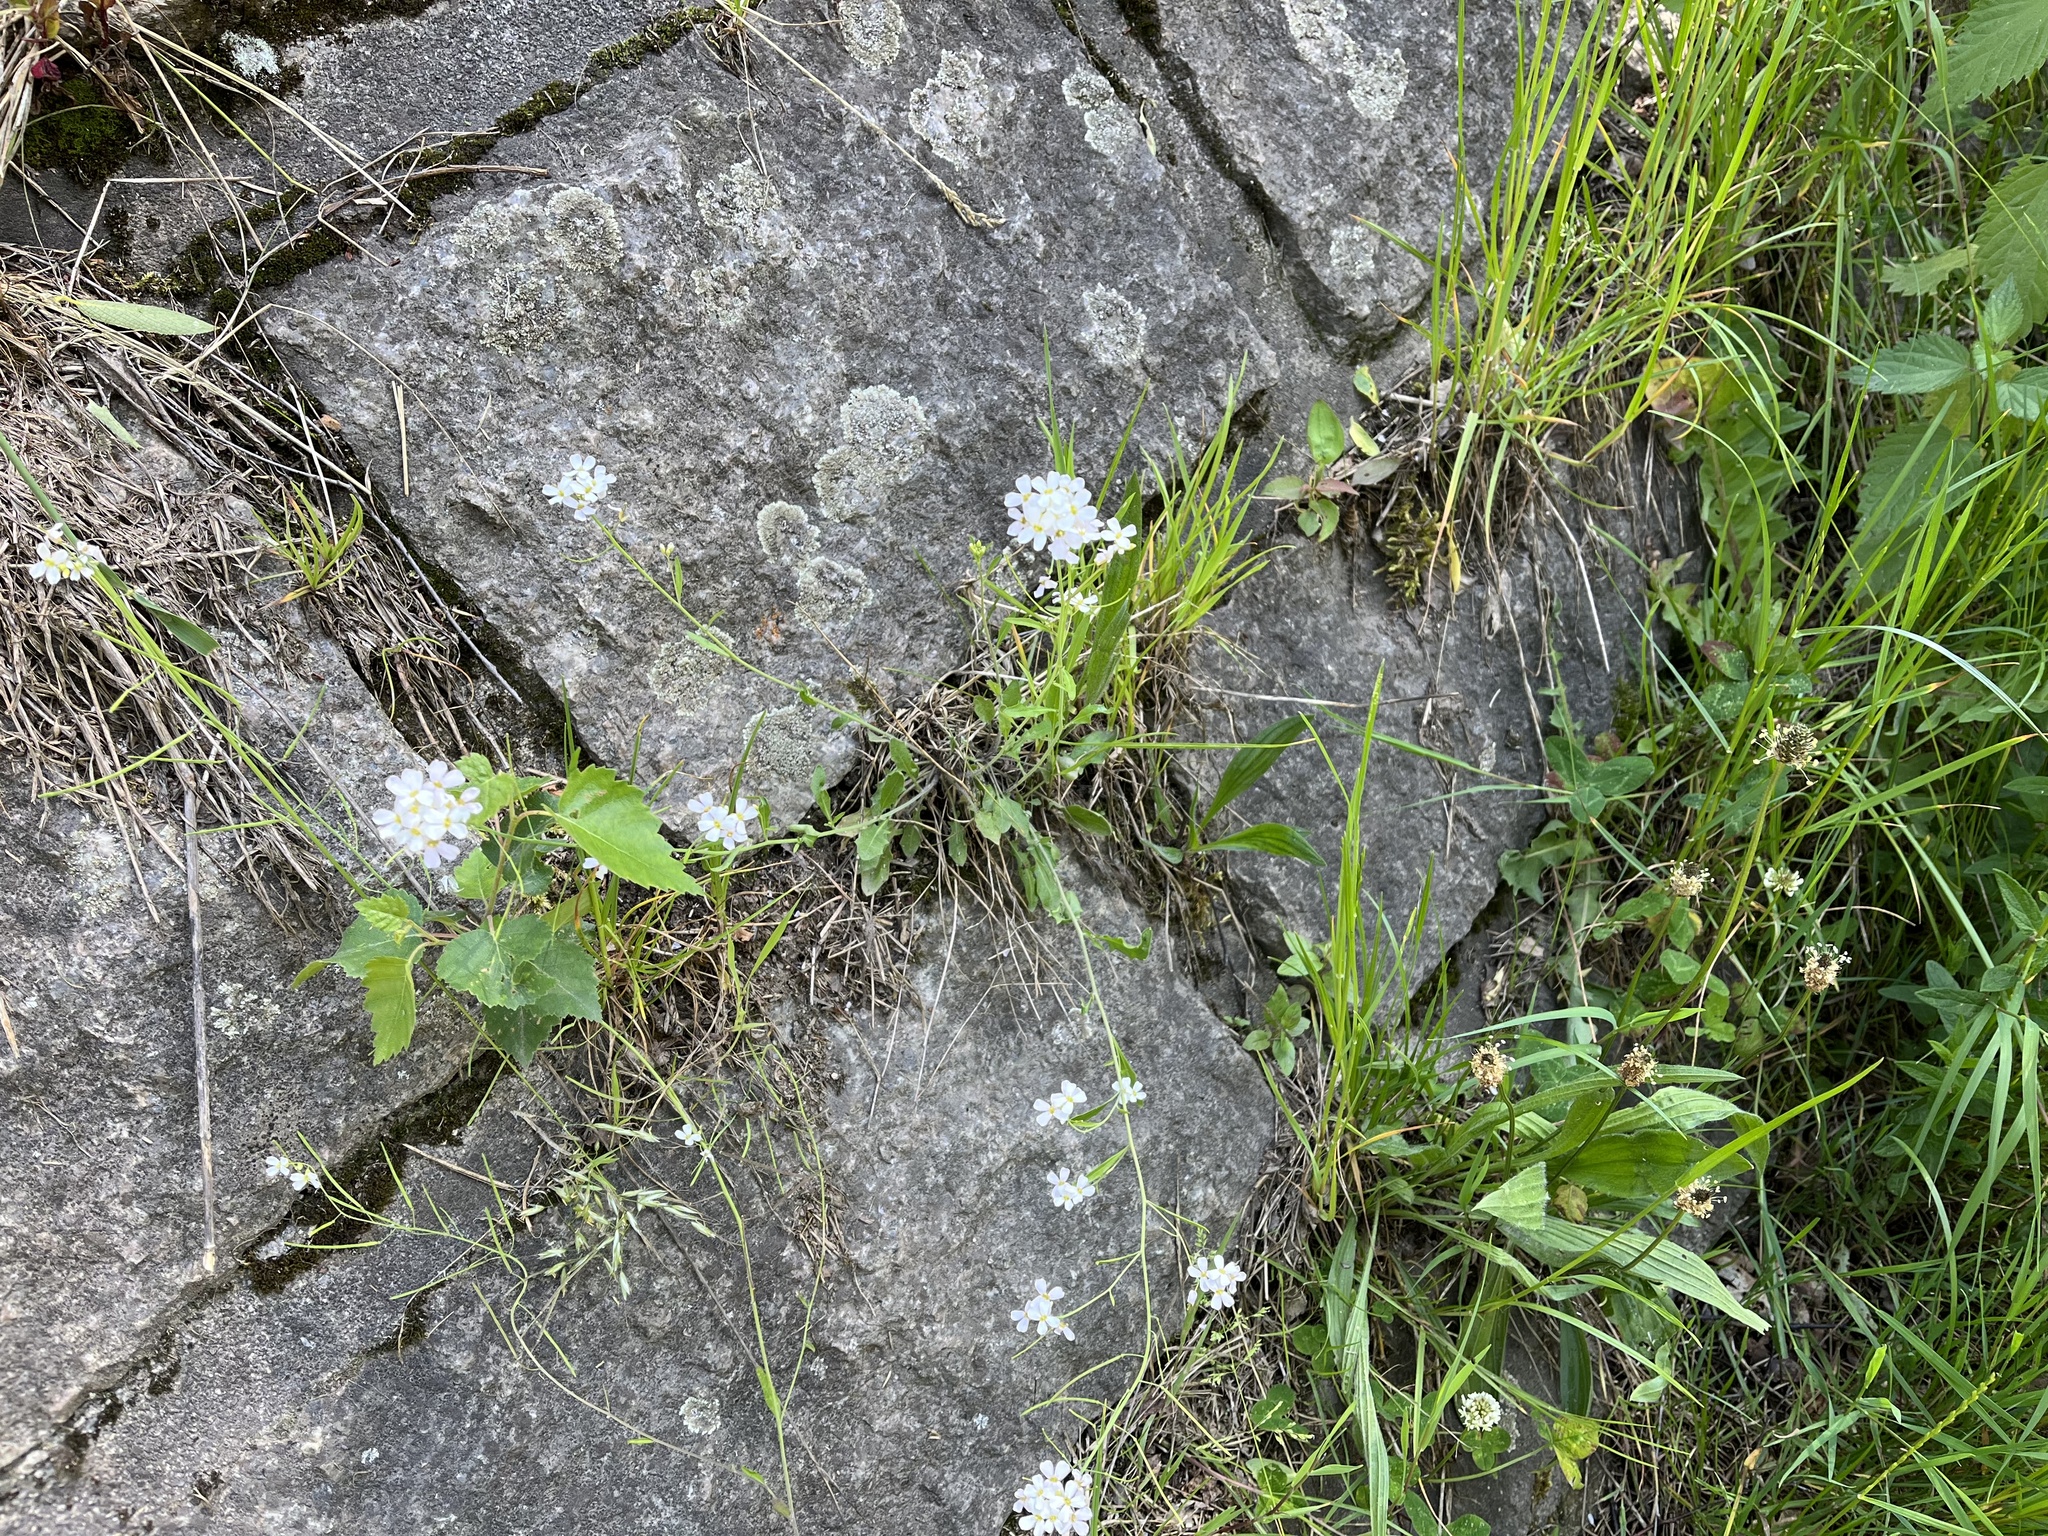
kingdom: Plantae
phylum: Tracheophyta
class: Magnoliopsida
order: Brassicales
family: Brassicaceae
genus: Arabidopsis
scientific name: Arabidopsis halleri
